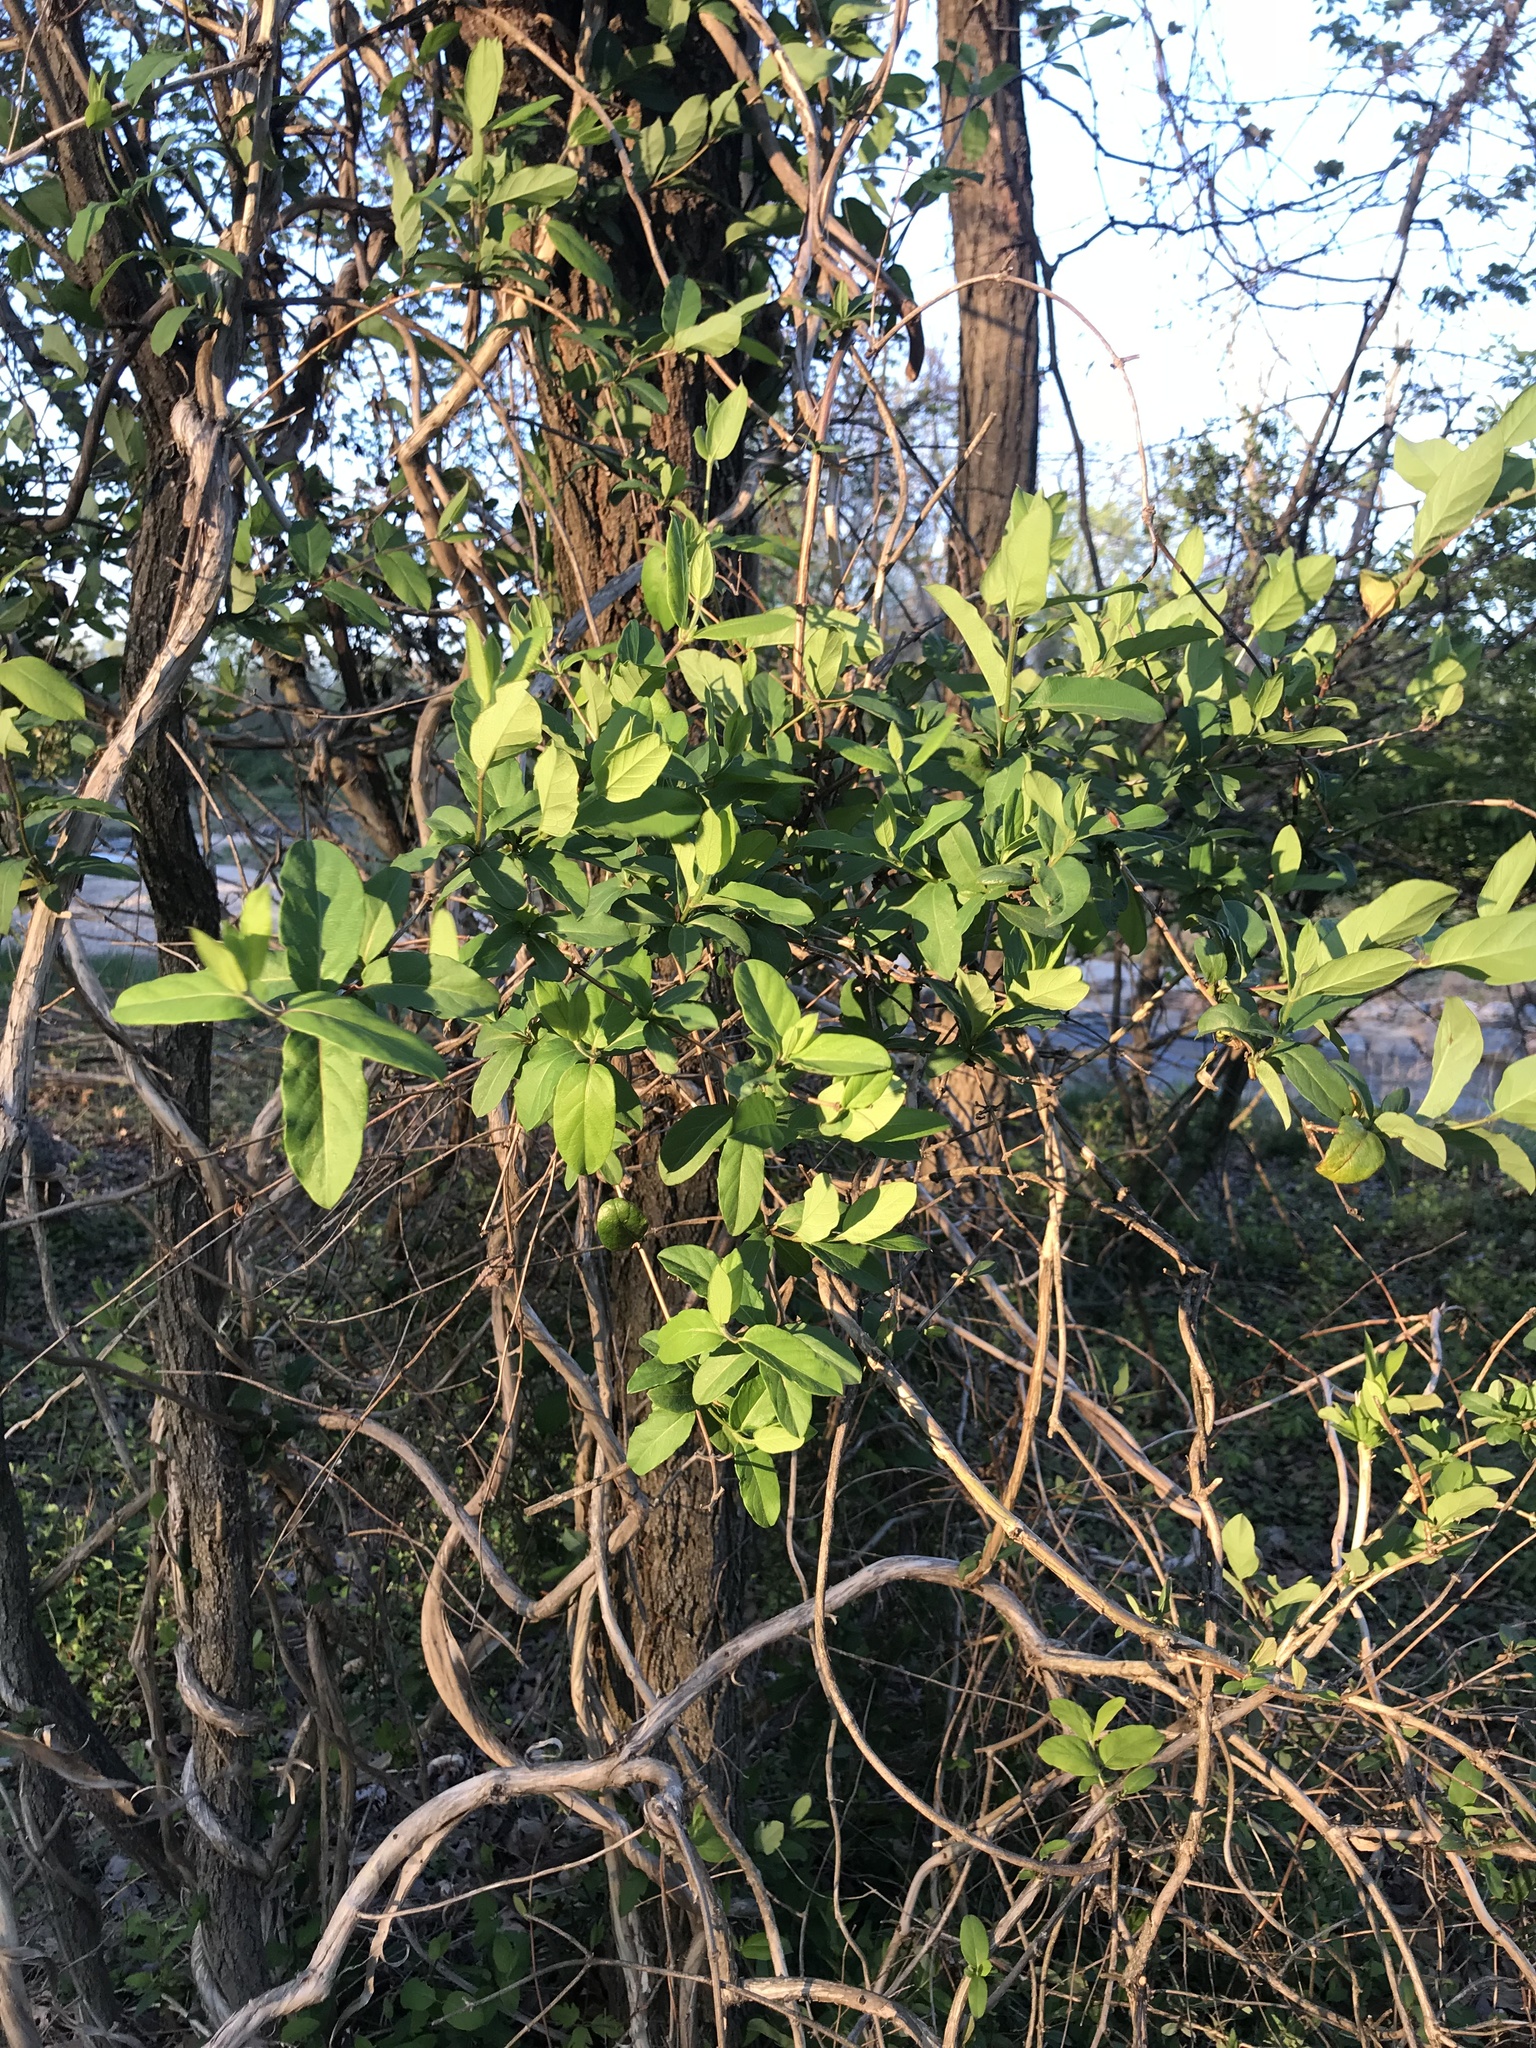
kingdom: Plantae
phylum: Tracheophyta
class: Magnoliopsida
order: Dipsacales
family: Caprifoliaceae
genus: Lonicera
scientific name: Lonicera japonica
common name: Japanese honeysuckle
